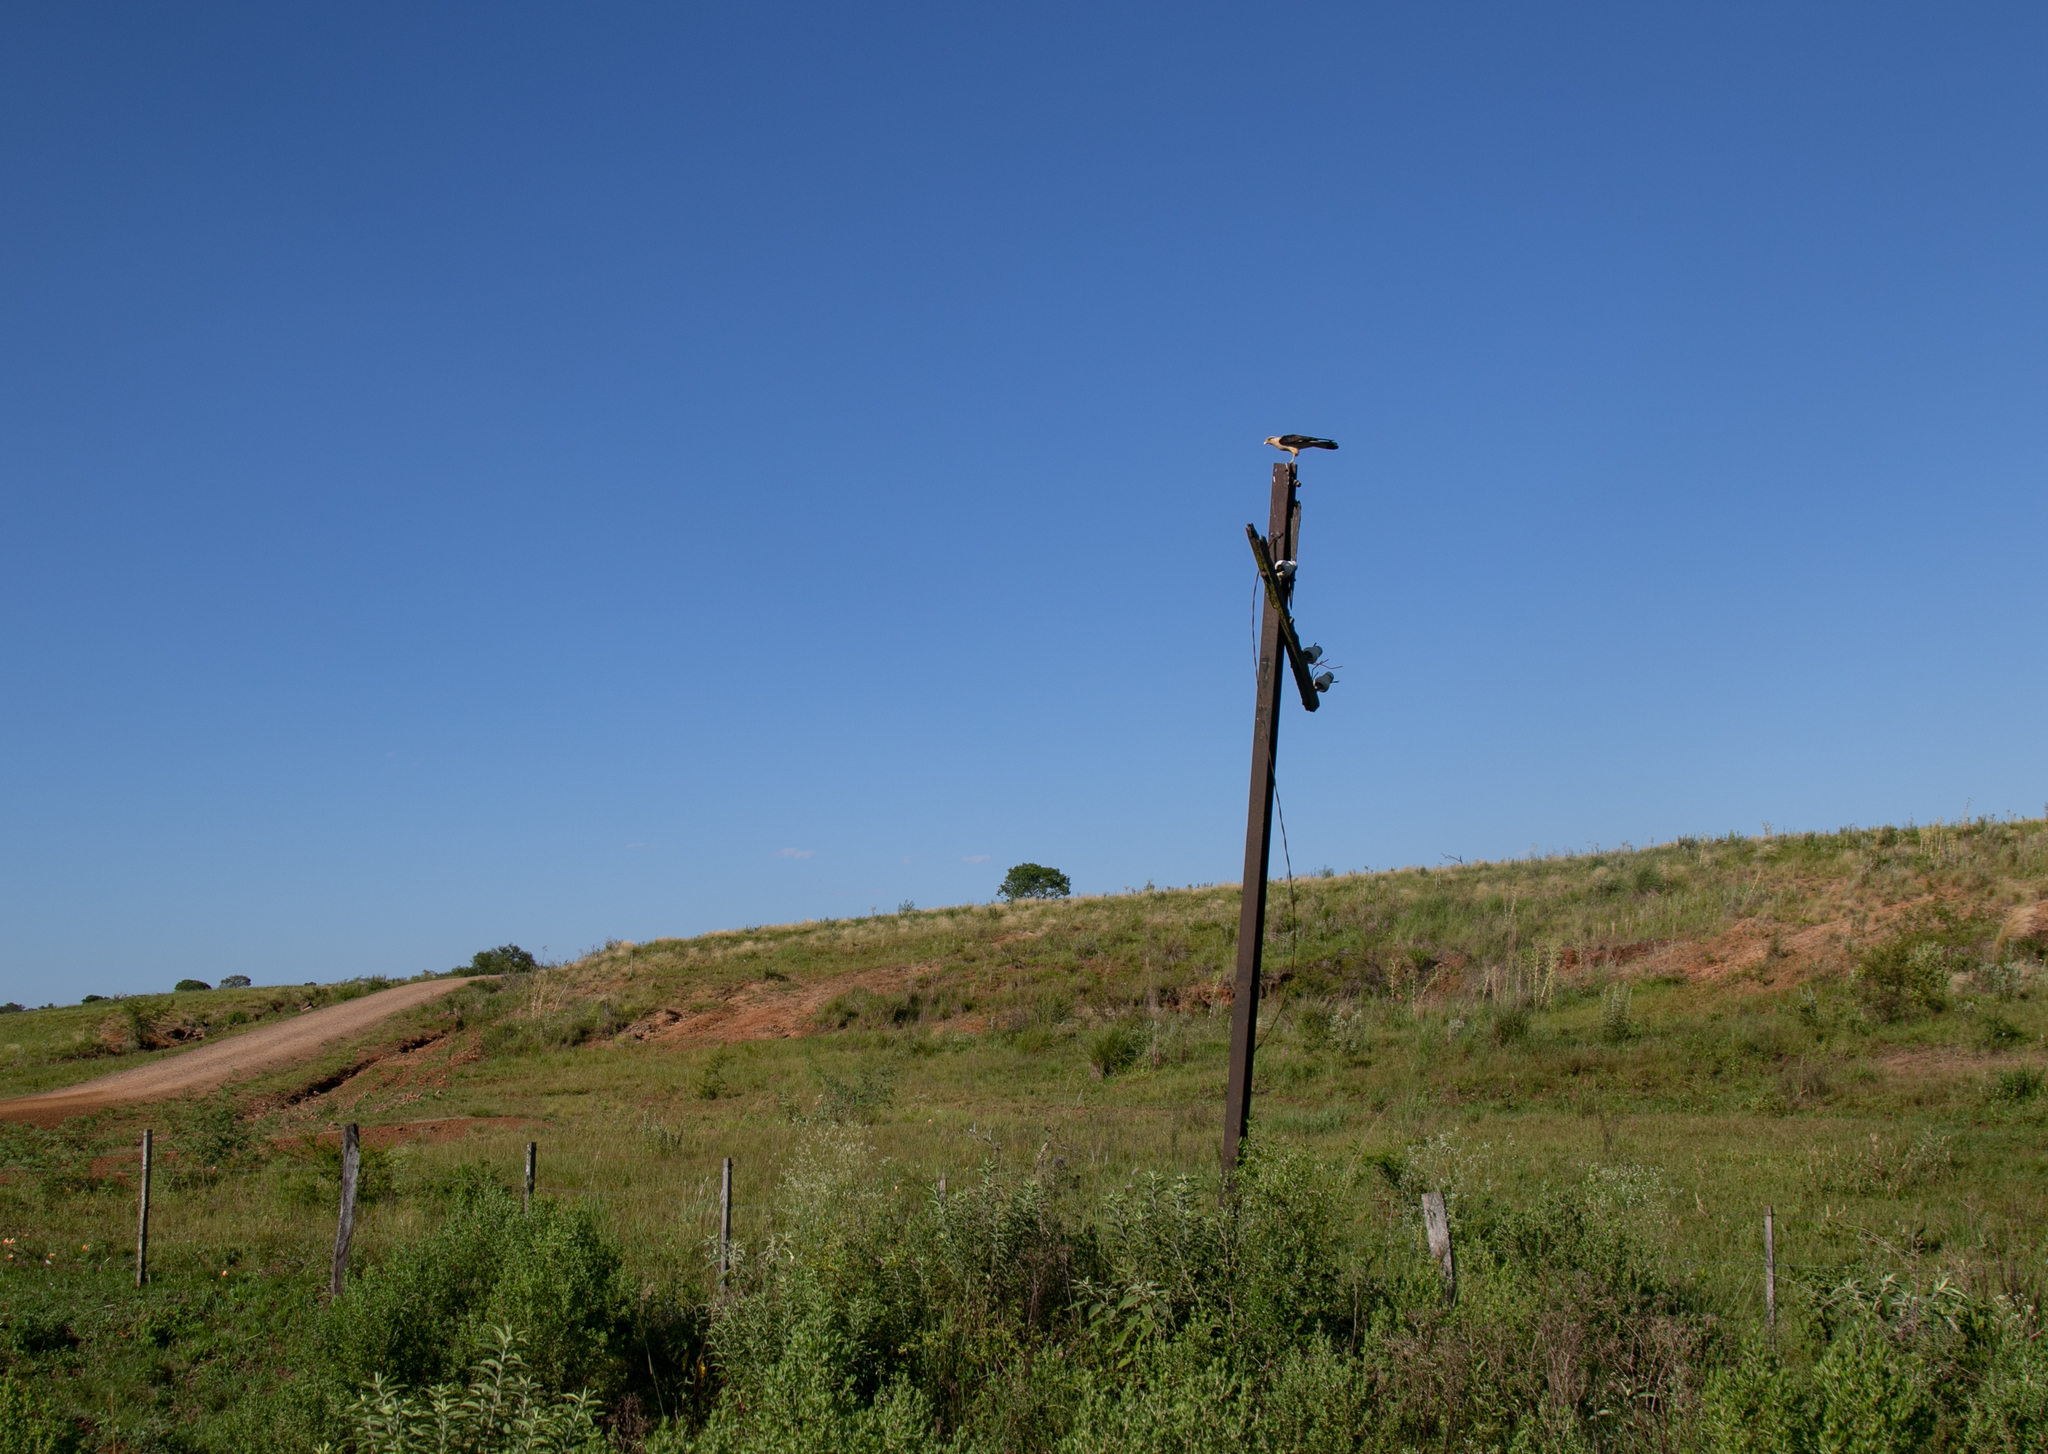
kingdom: Animalia
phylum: Chordata
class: Aves
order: Falconiformes
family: Falconidae
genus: Daptrius
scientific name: Daptrius
